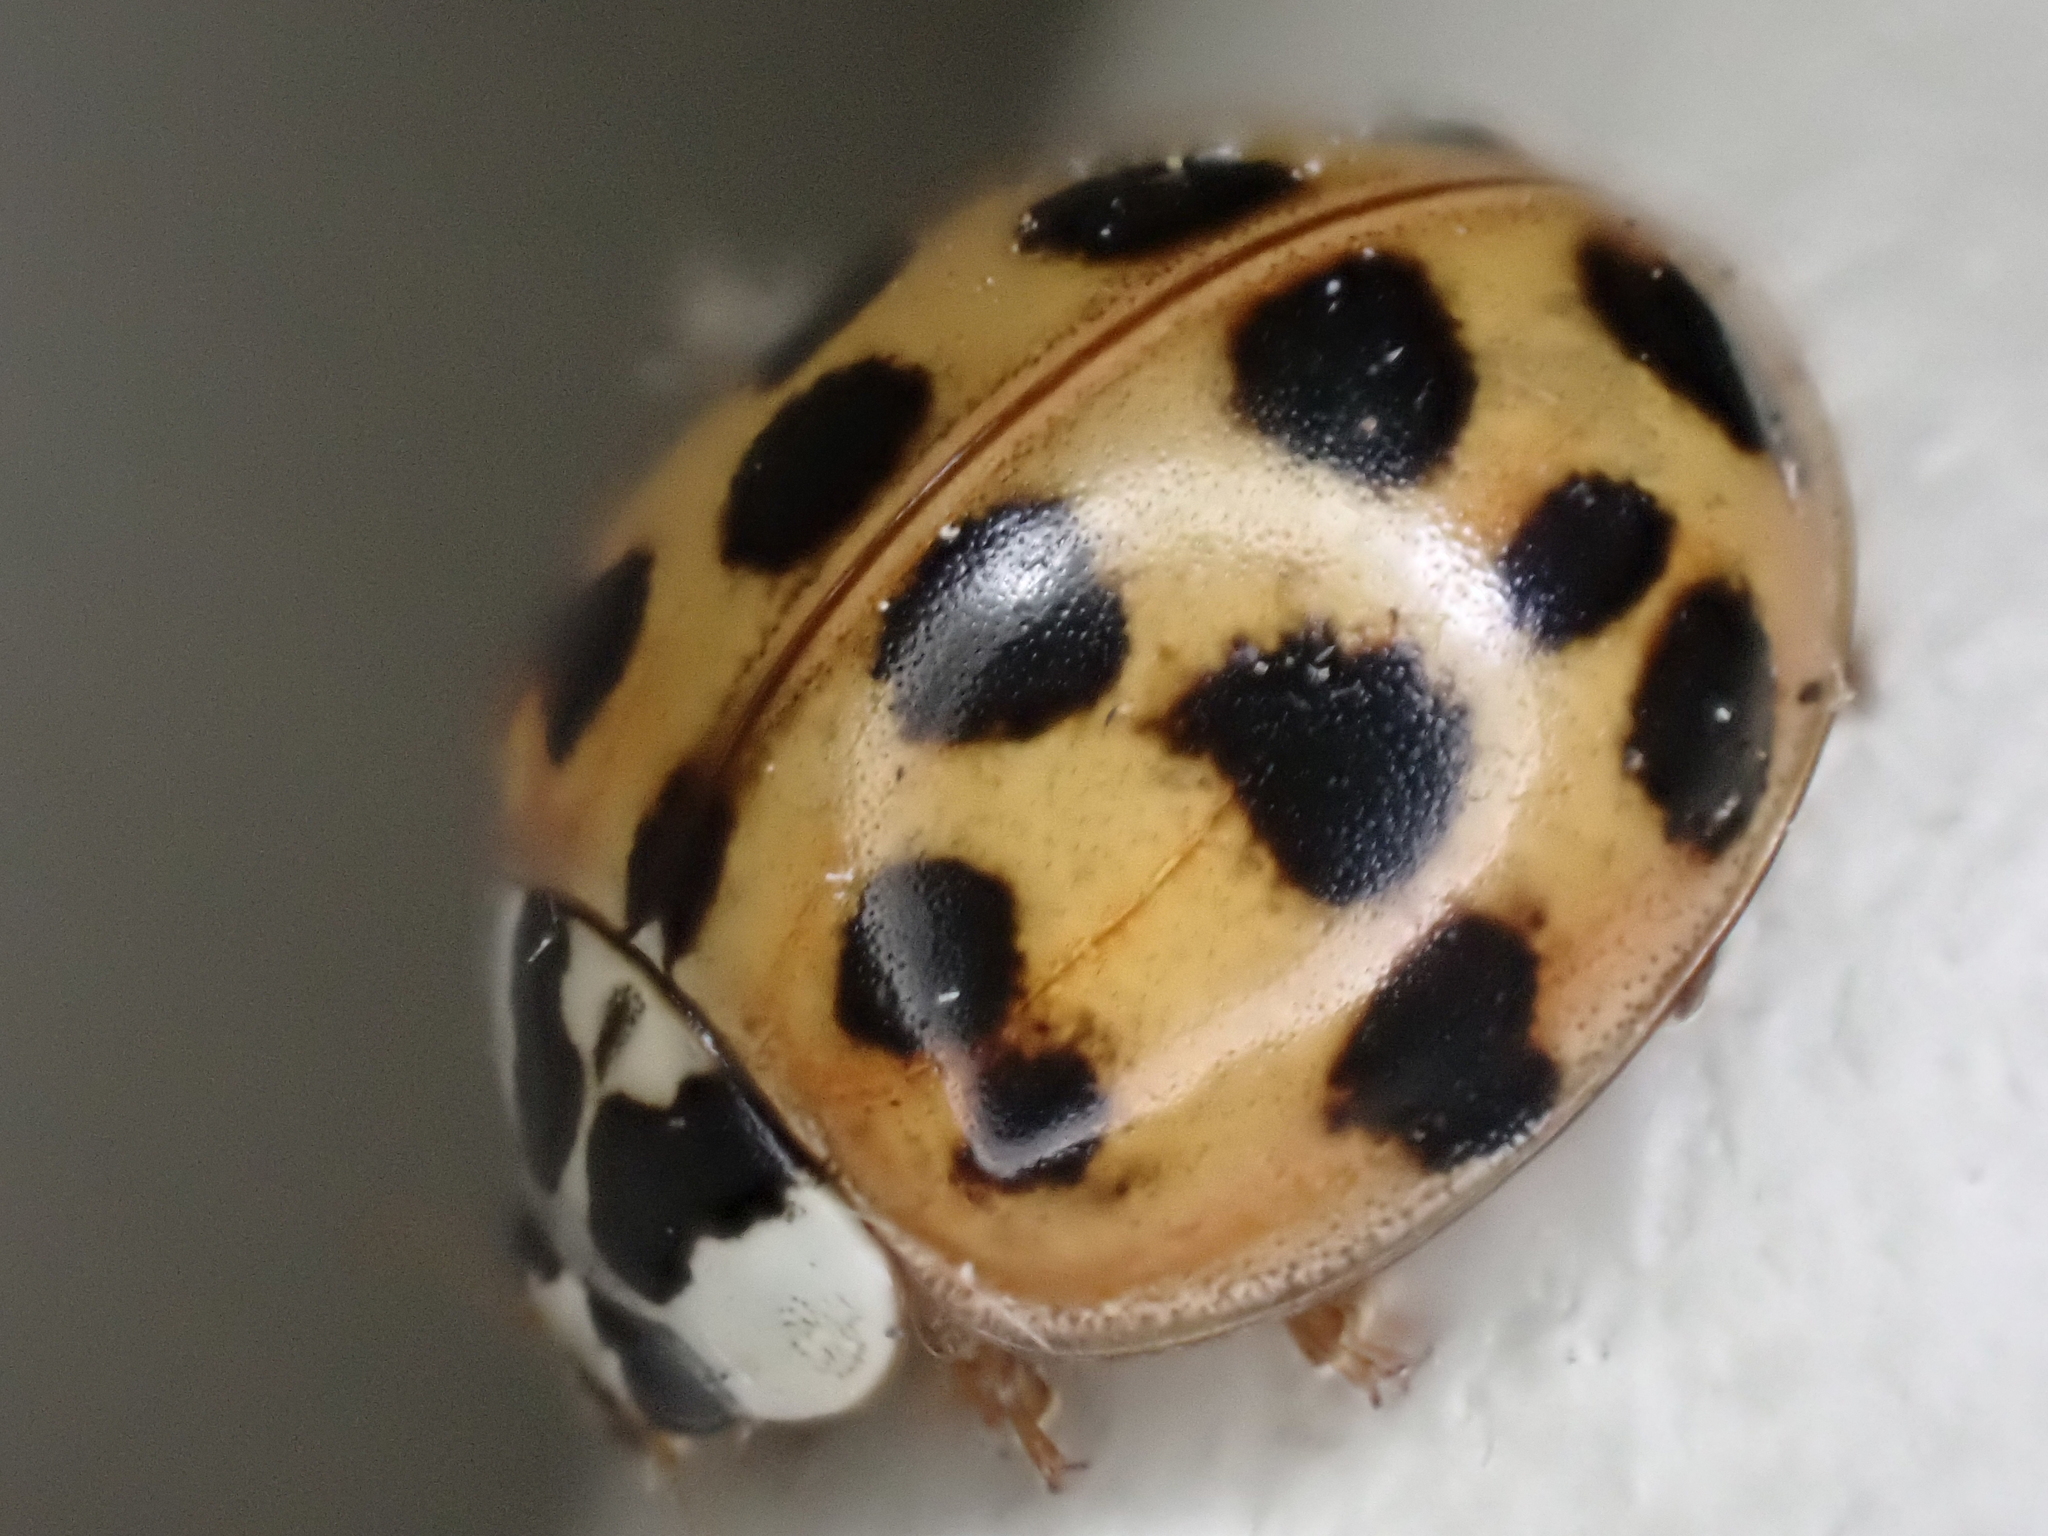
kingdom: Animalia
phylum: Arthropoda
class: Insecta
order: Coleoptera
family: Coccinellidae
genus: Harmonia
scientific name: Harmonia axyridis
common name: Harlequin ladybird
